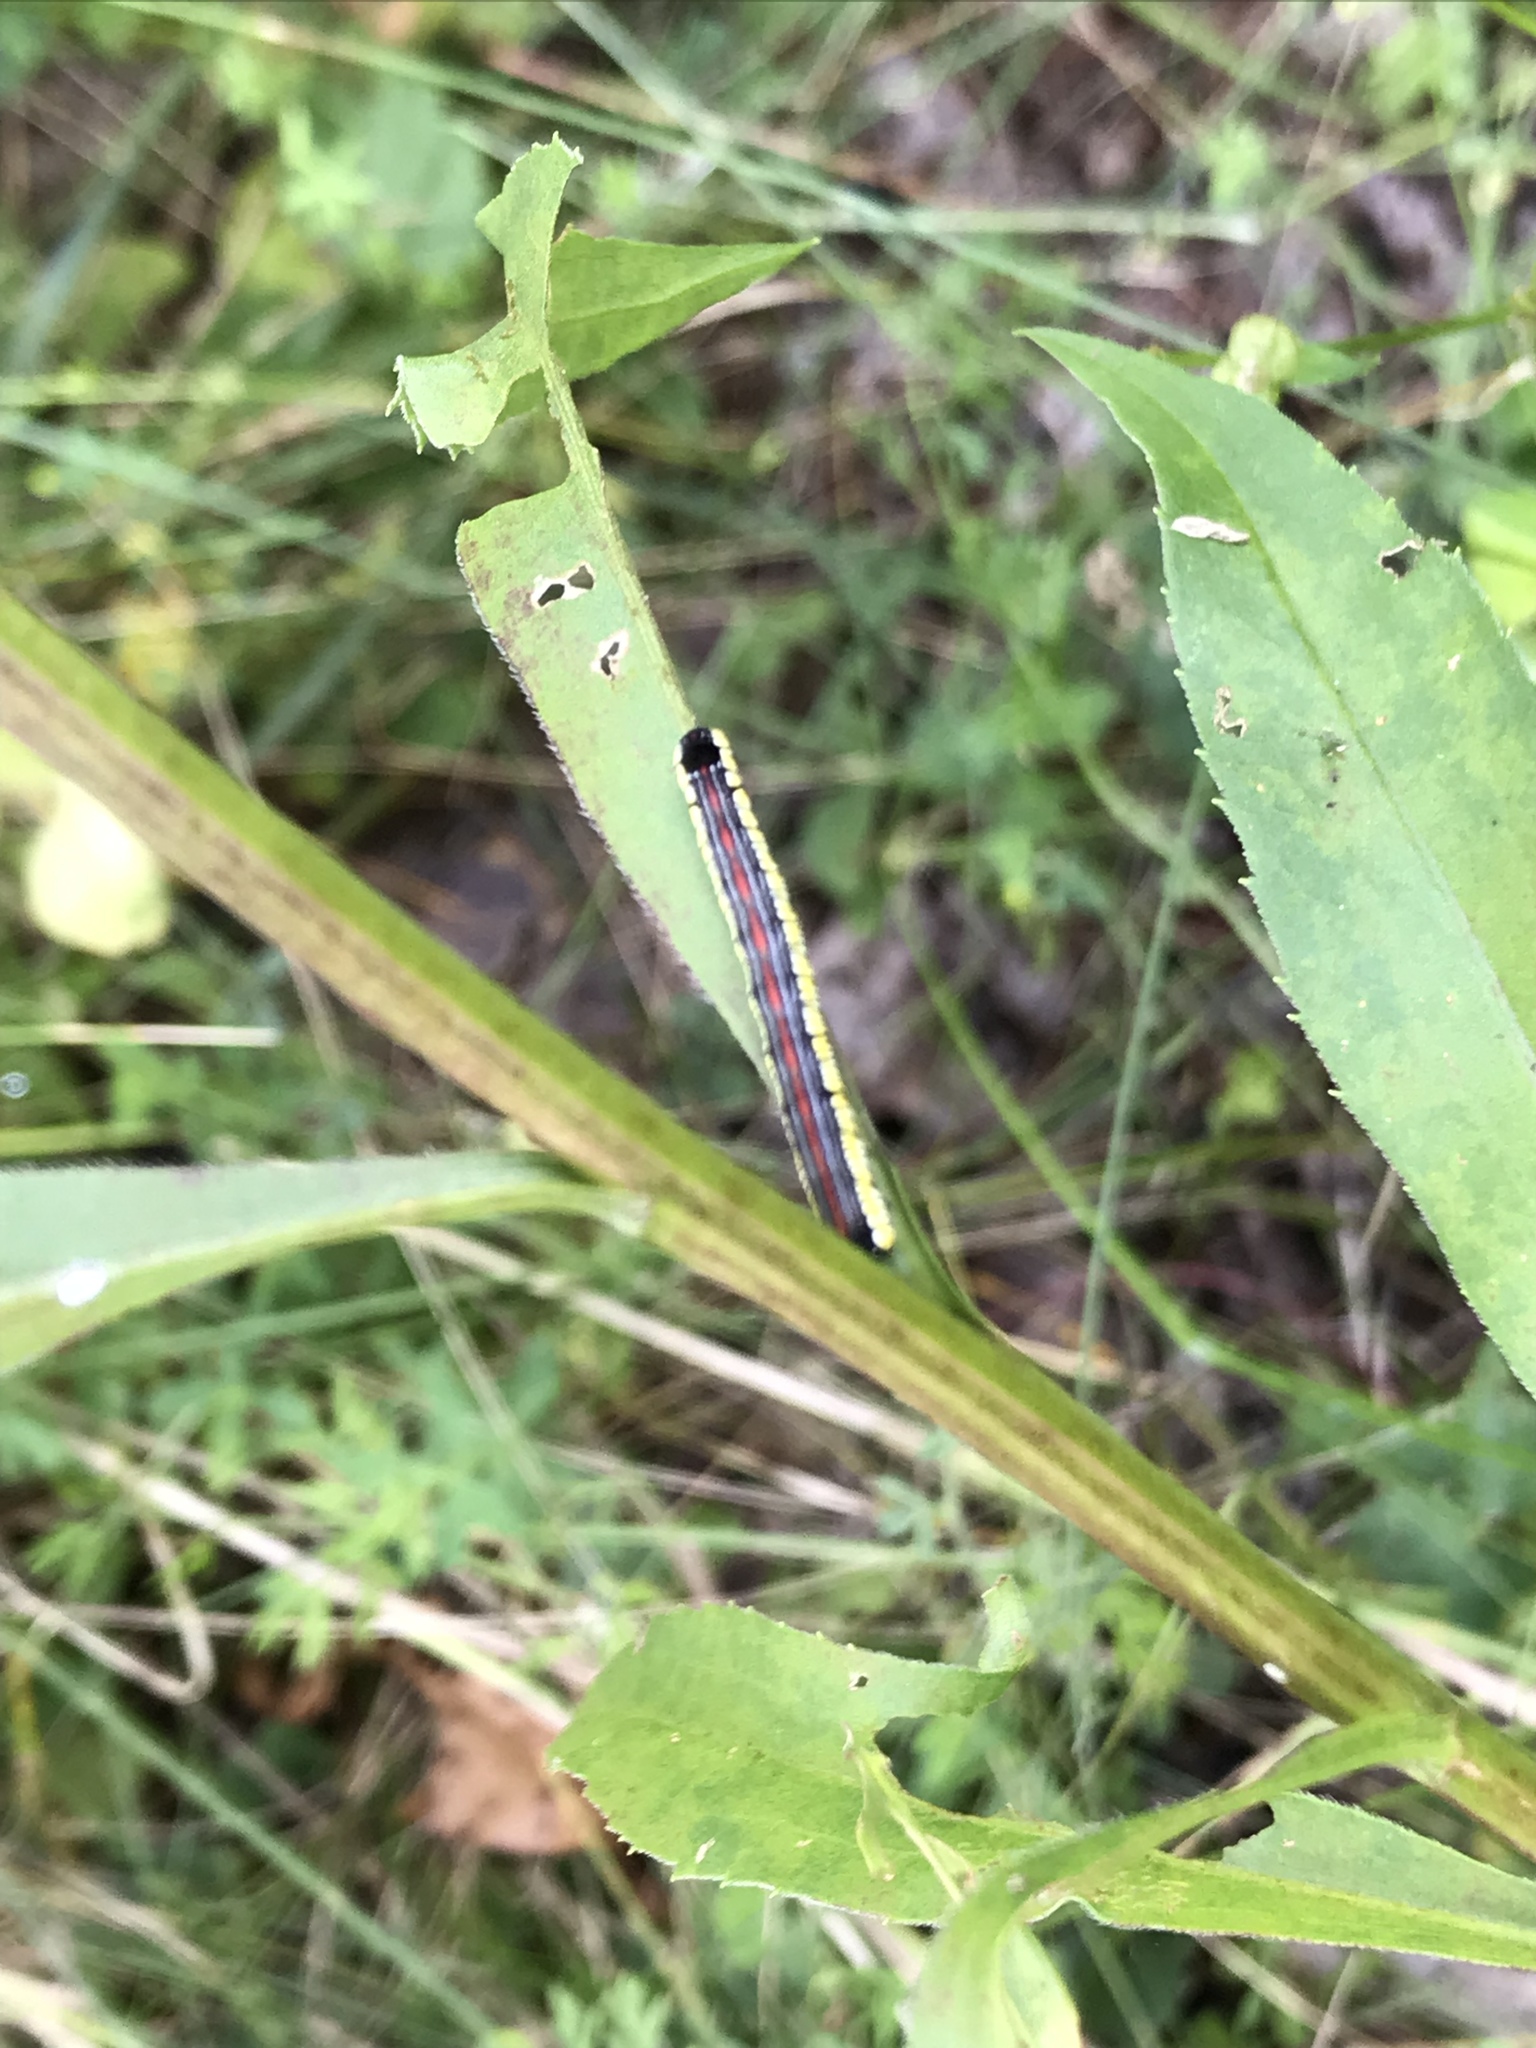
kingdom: Animalia
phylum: Arthropoda
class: Insecta
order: Lepidoptera
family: Noctuidae
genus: Cucullia
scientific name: Cucullia convexipennis
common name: Brown-hooded owlet
